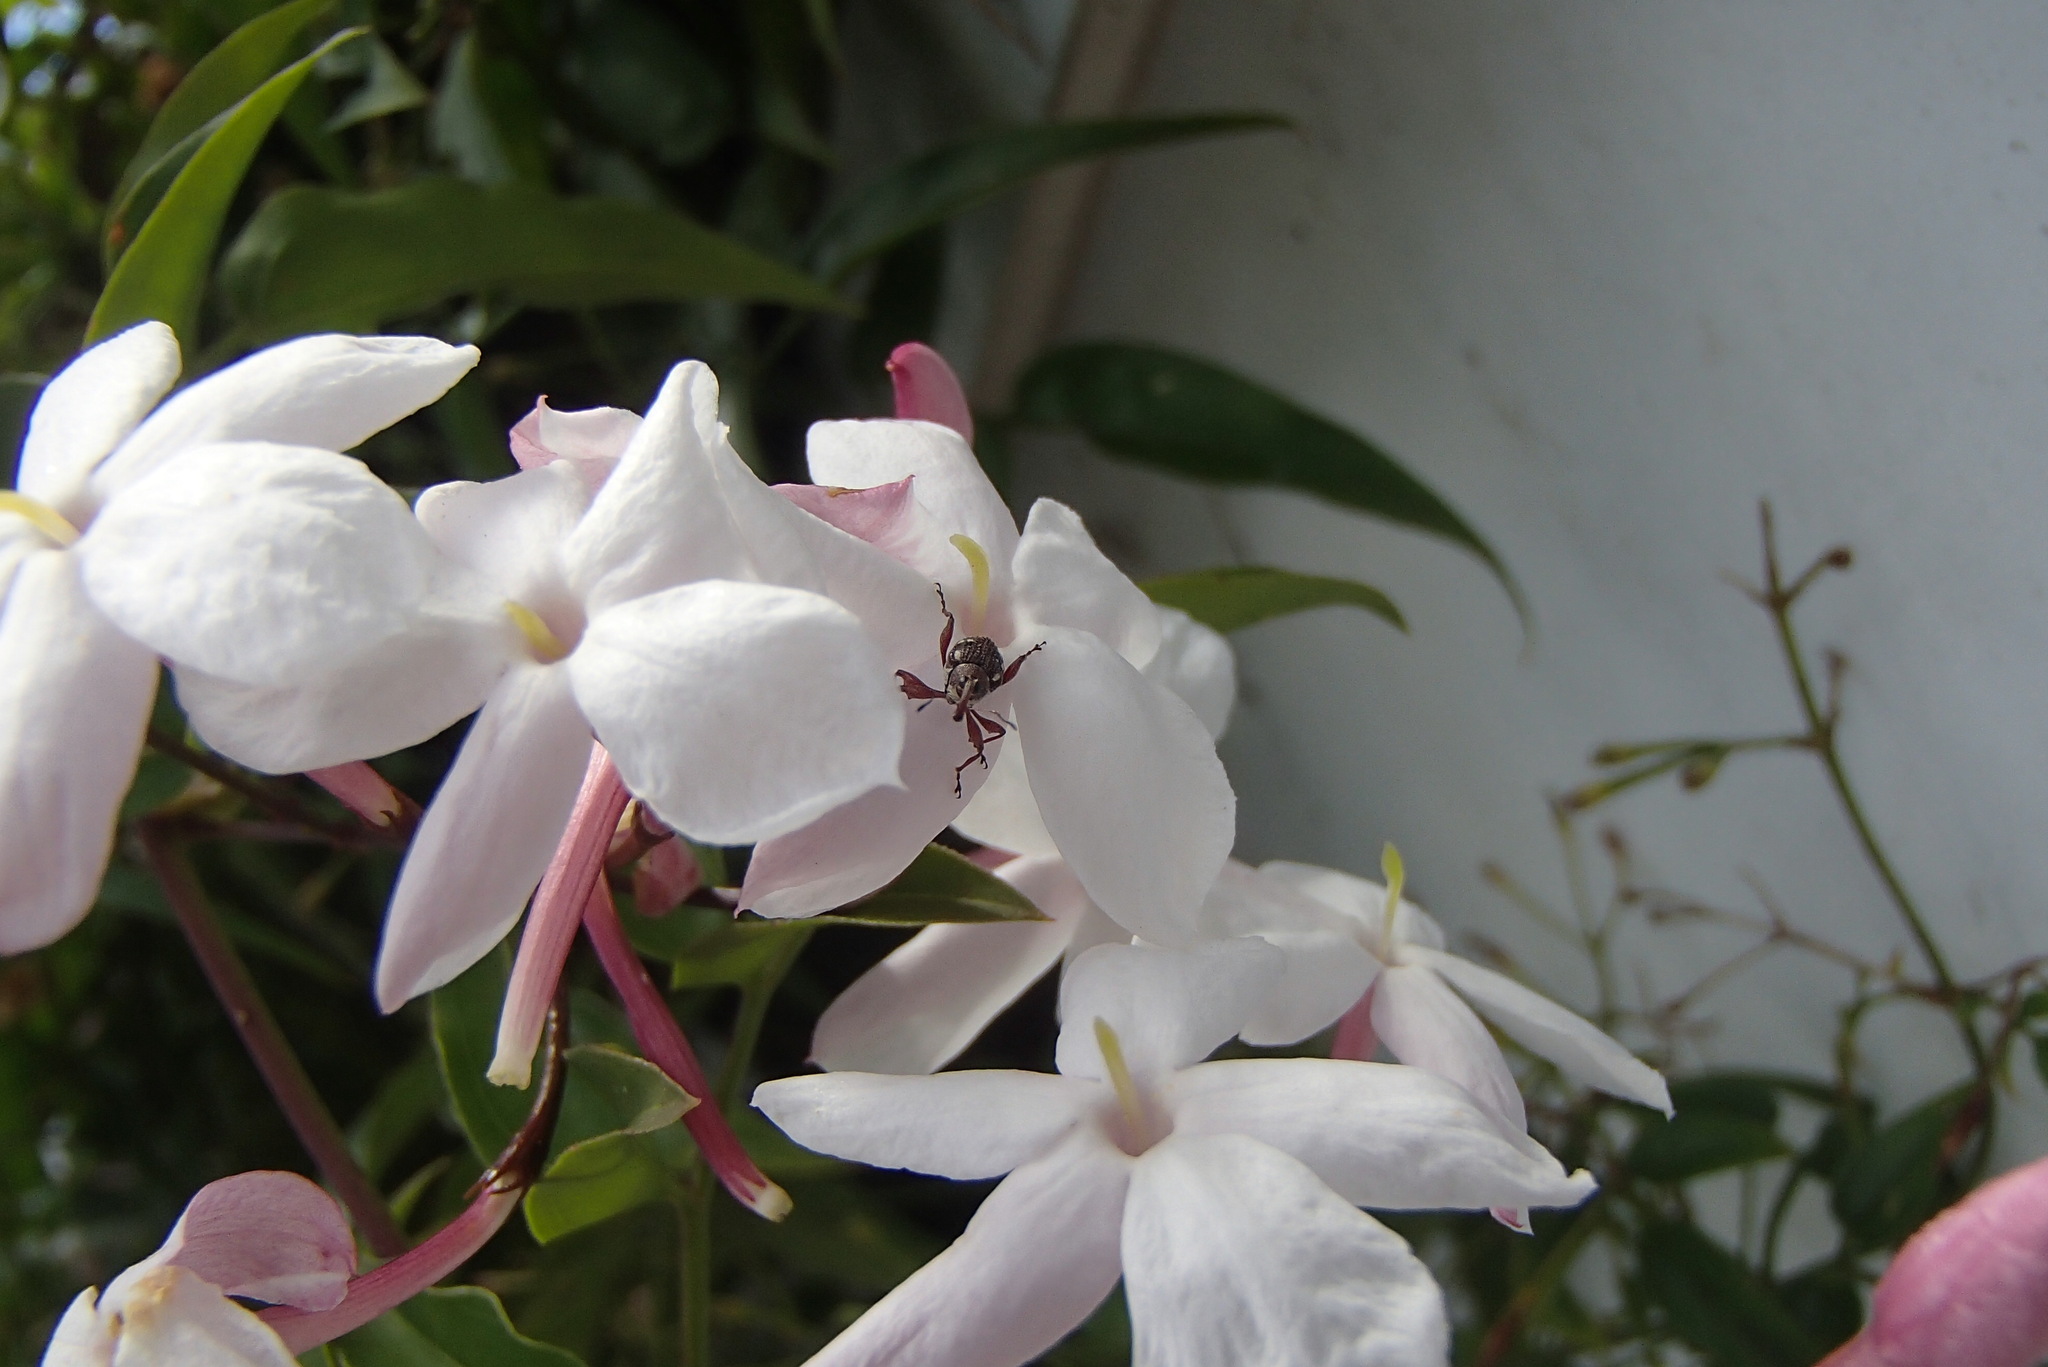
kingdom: Animalia
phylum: Arthropoda
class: Insecta
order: Coleoptera
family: Curculionidae
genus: Meriphus
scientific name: Meriphus guttatus
